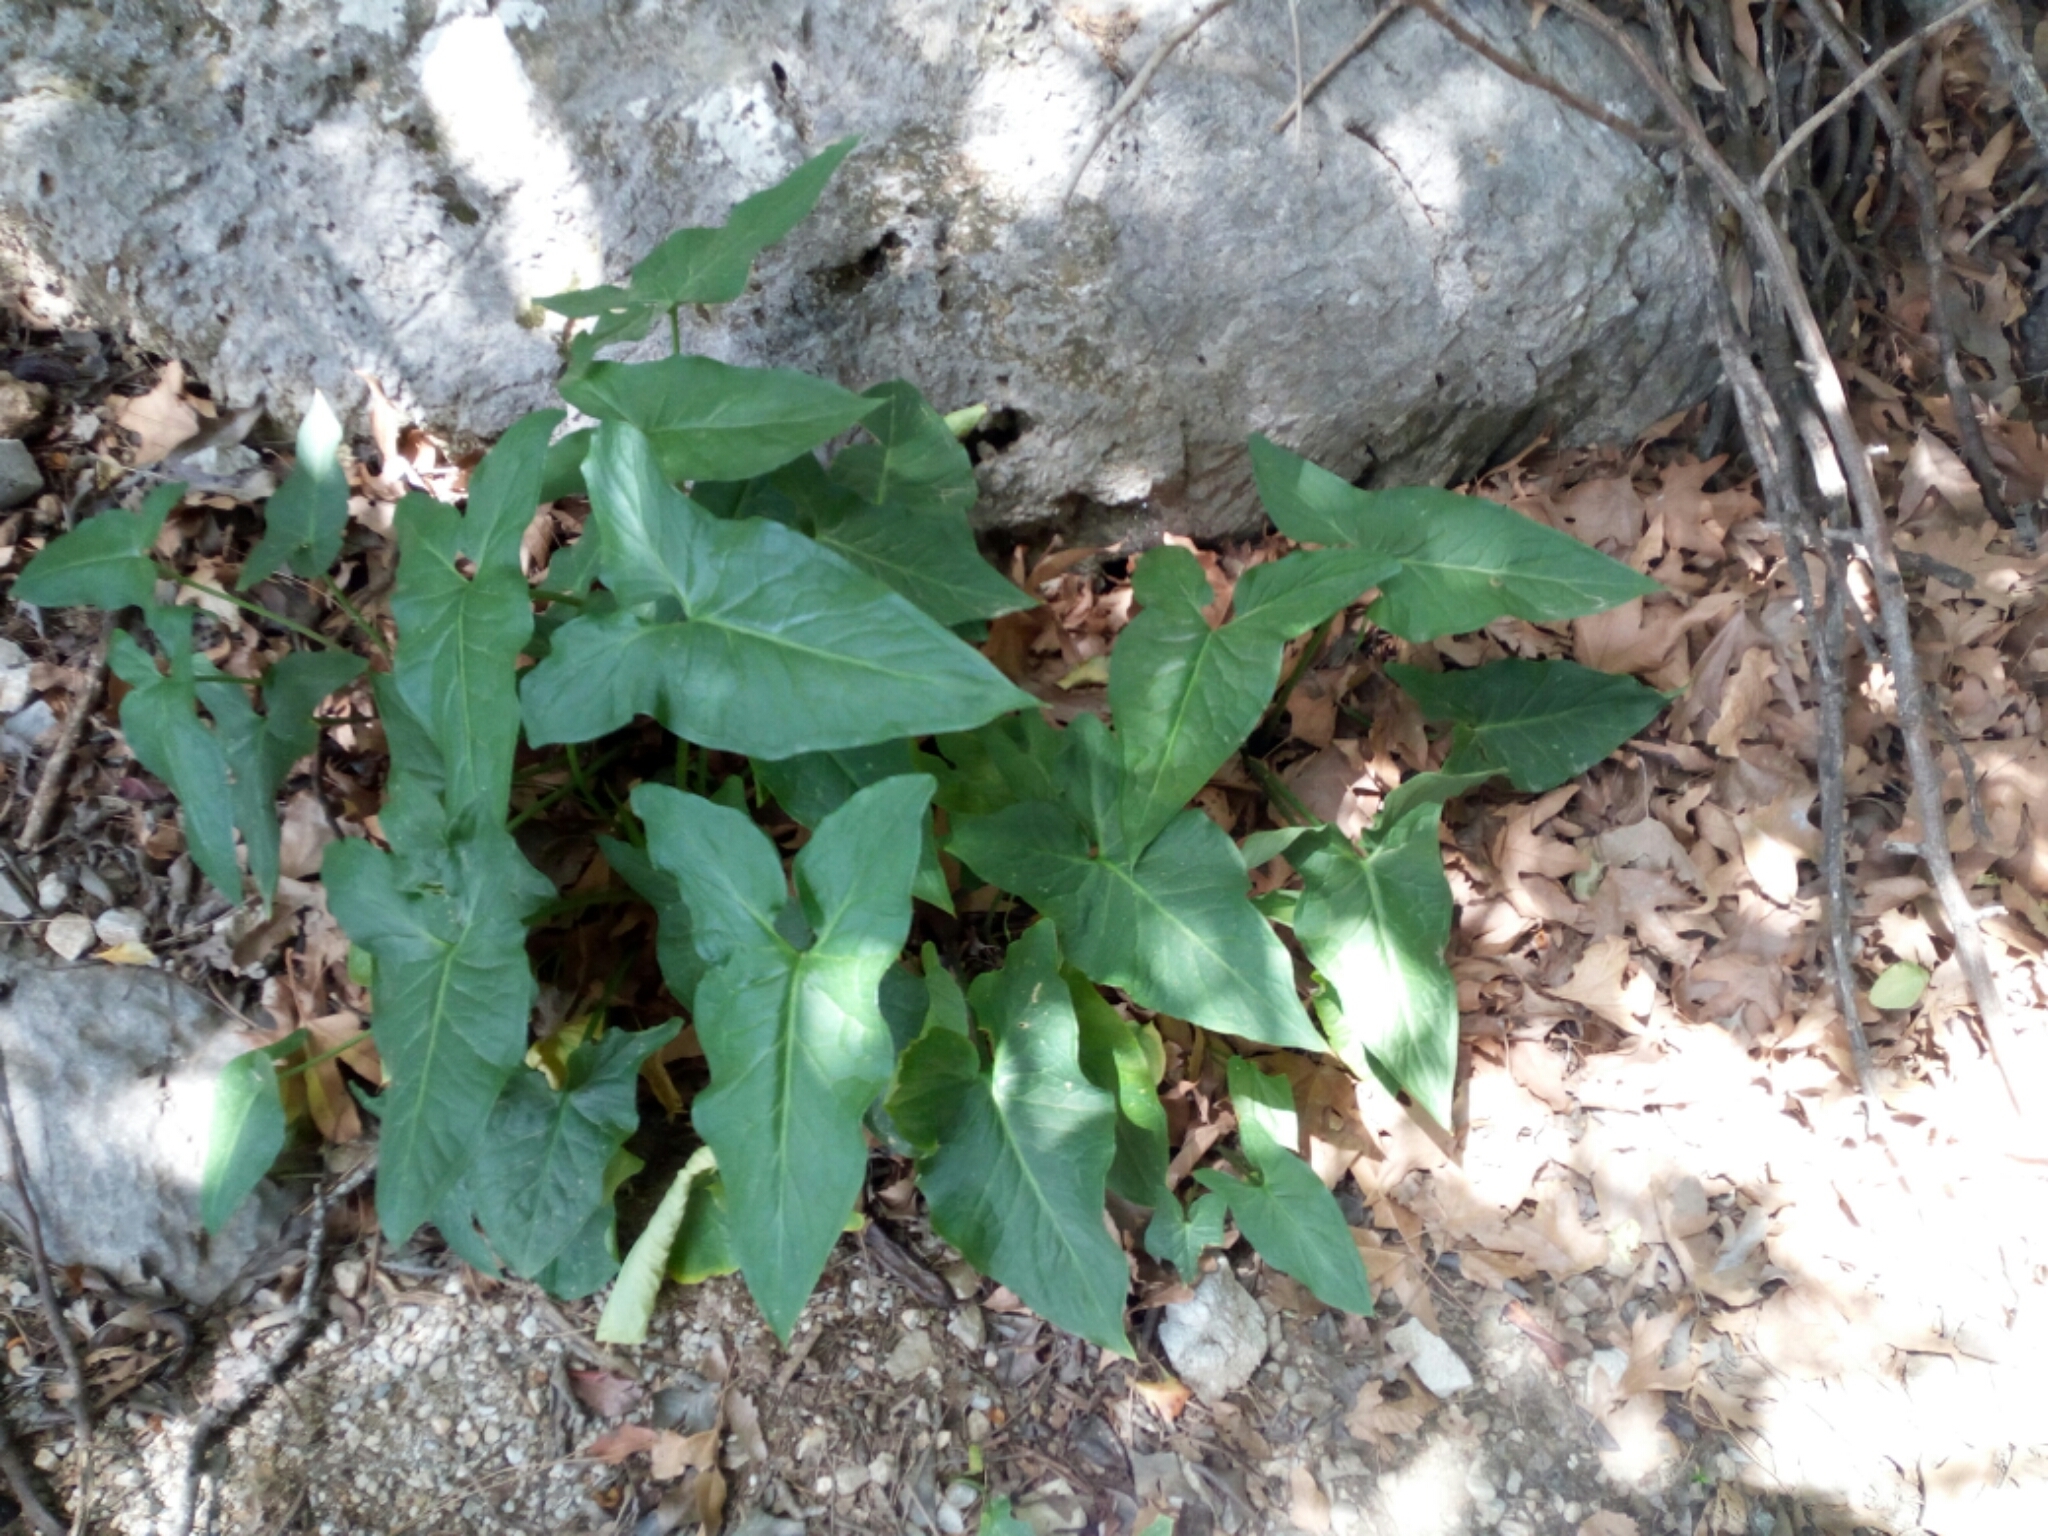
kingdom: Plantae
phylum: Tracheophyta
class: Liliopsida
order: Alismatales
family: Araceae
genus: Arum
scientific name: Arum concinnatum
